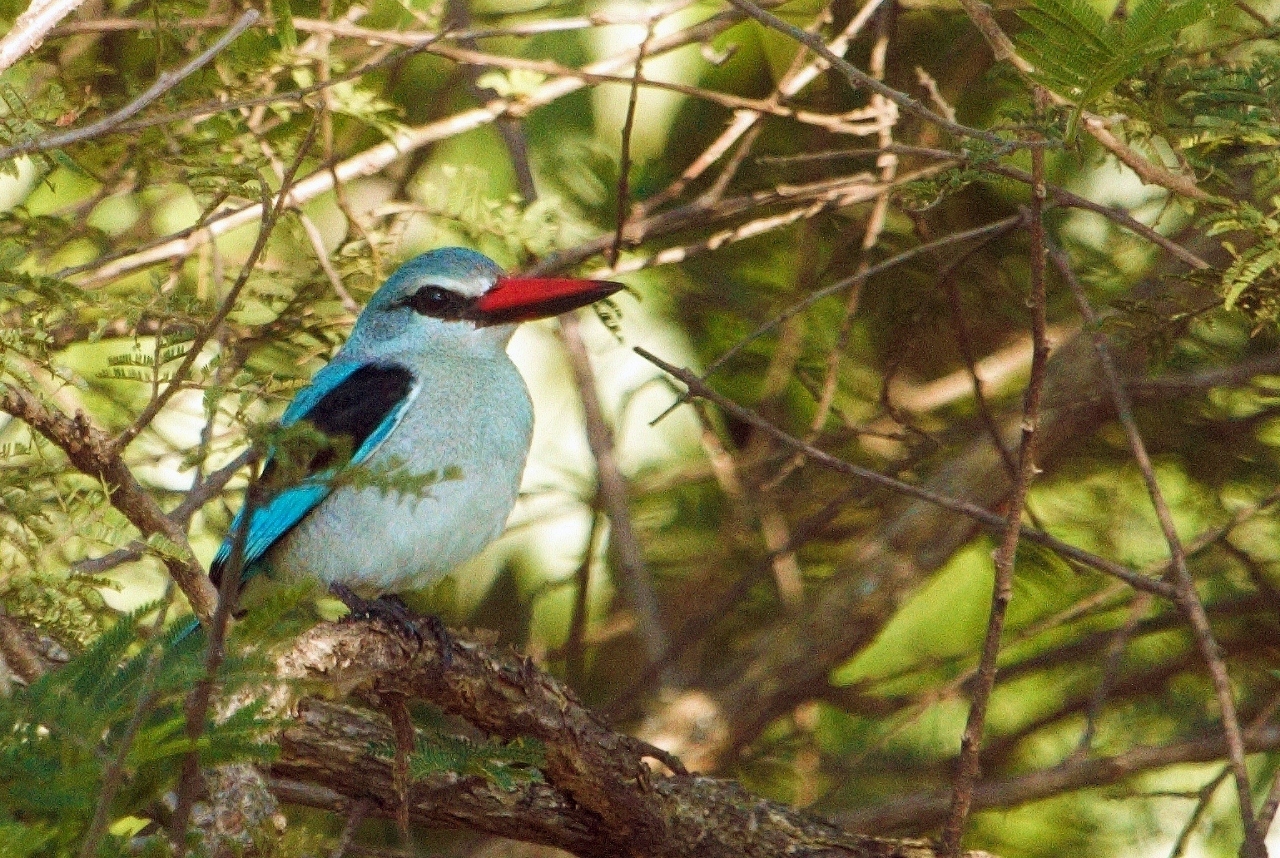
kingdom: Animalia
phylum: Chordata
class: Aves
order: Coraciiformes
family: Alcedinidae
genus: Halcyon
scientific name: Halcyon senegalensis
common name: Woodland kingfisher
